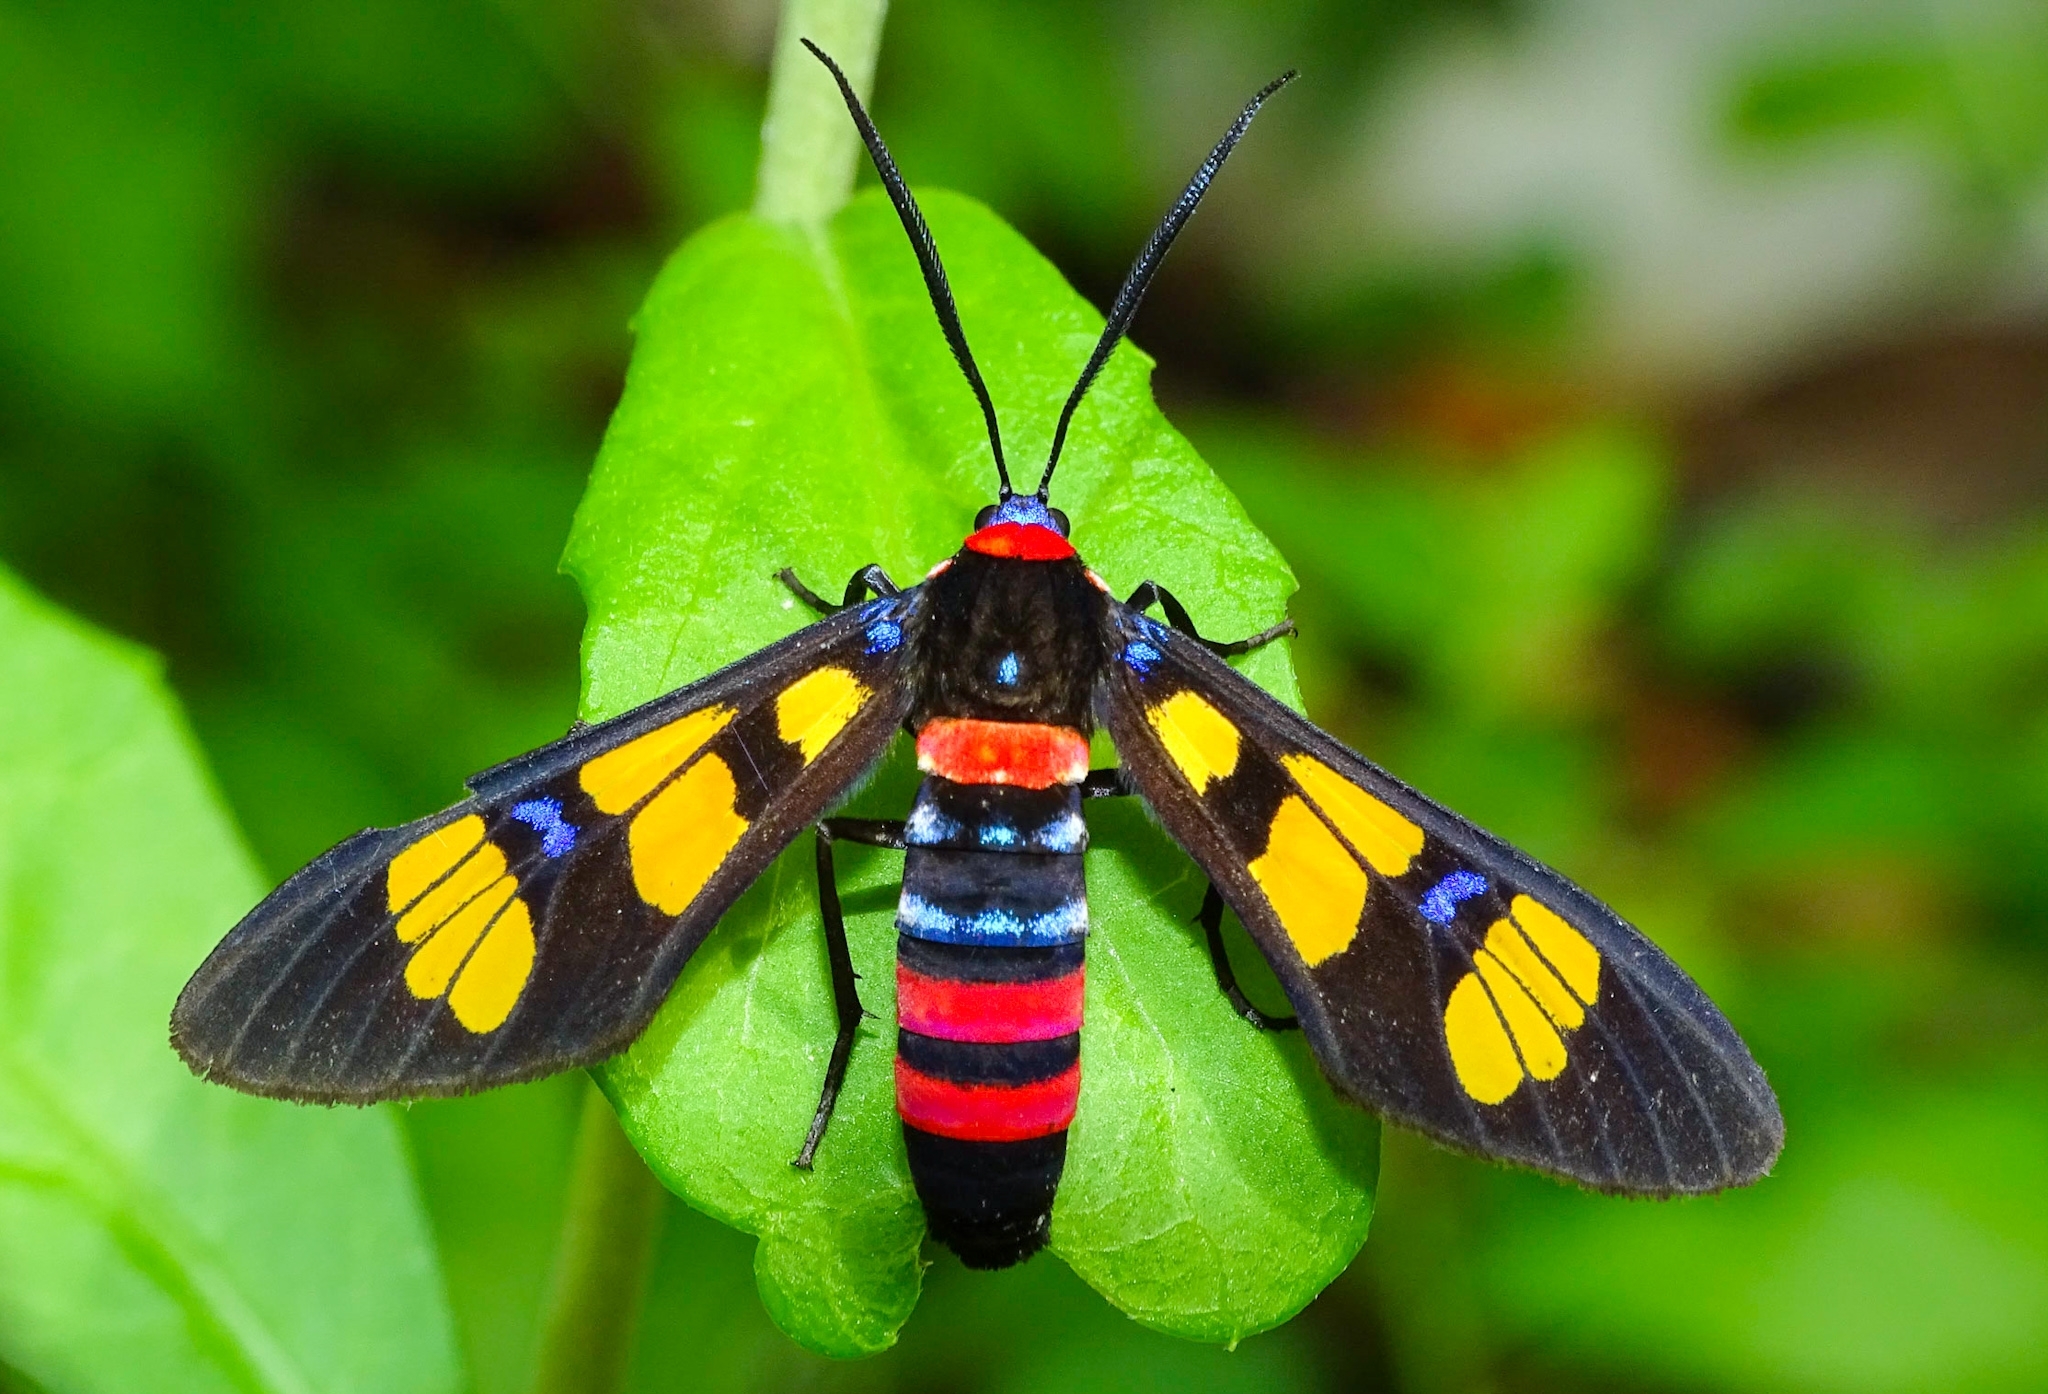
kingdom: Animalia
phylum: Arthropoda
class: Insecta
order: Lepidoptera
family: Erebidae
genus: Euchromia
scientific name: Euchromia polymena
